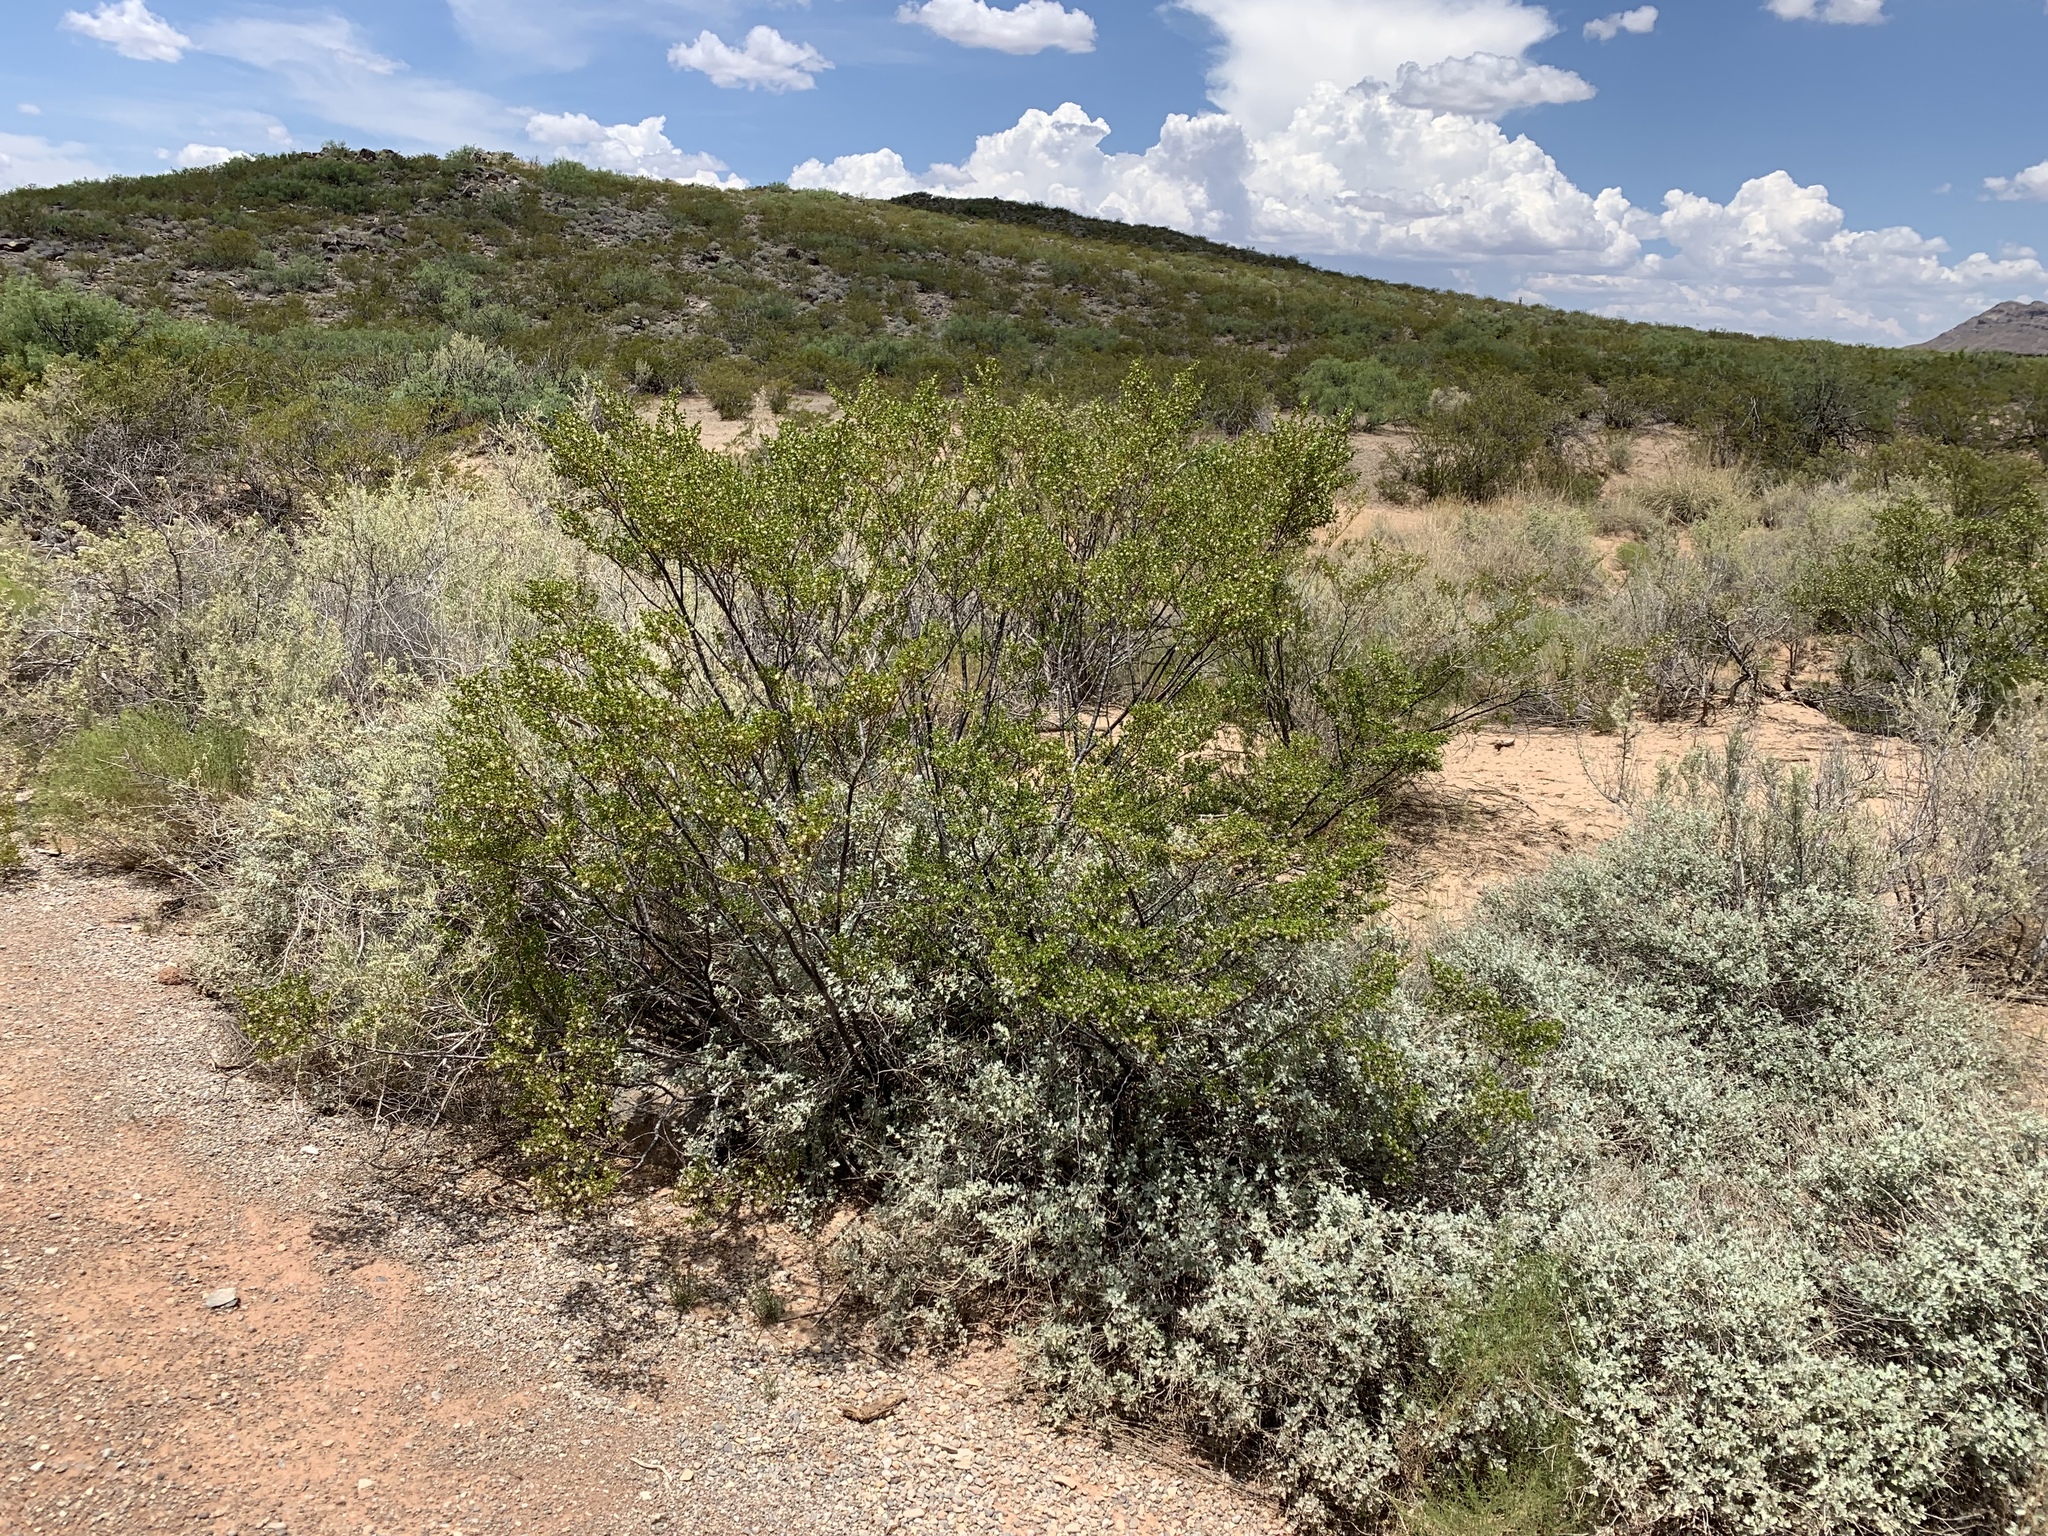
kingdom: Plantae
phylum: Tracheophyta
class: Magnoliopsida
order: Zygophyllales
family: Zygophyllaceae
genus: Larrea
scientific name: Larrea tridentata
